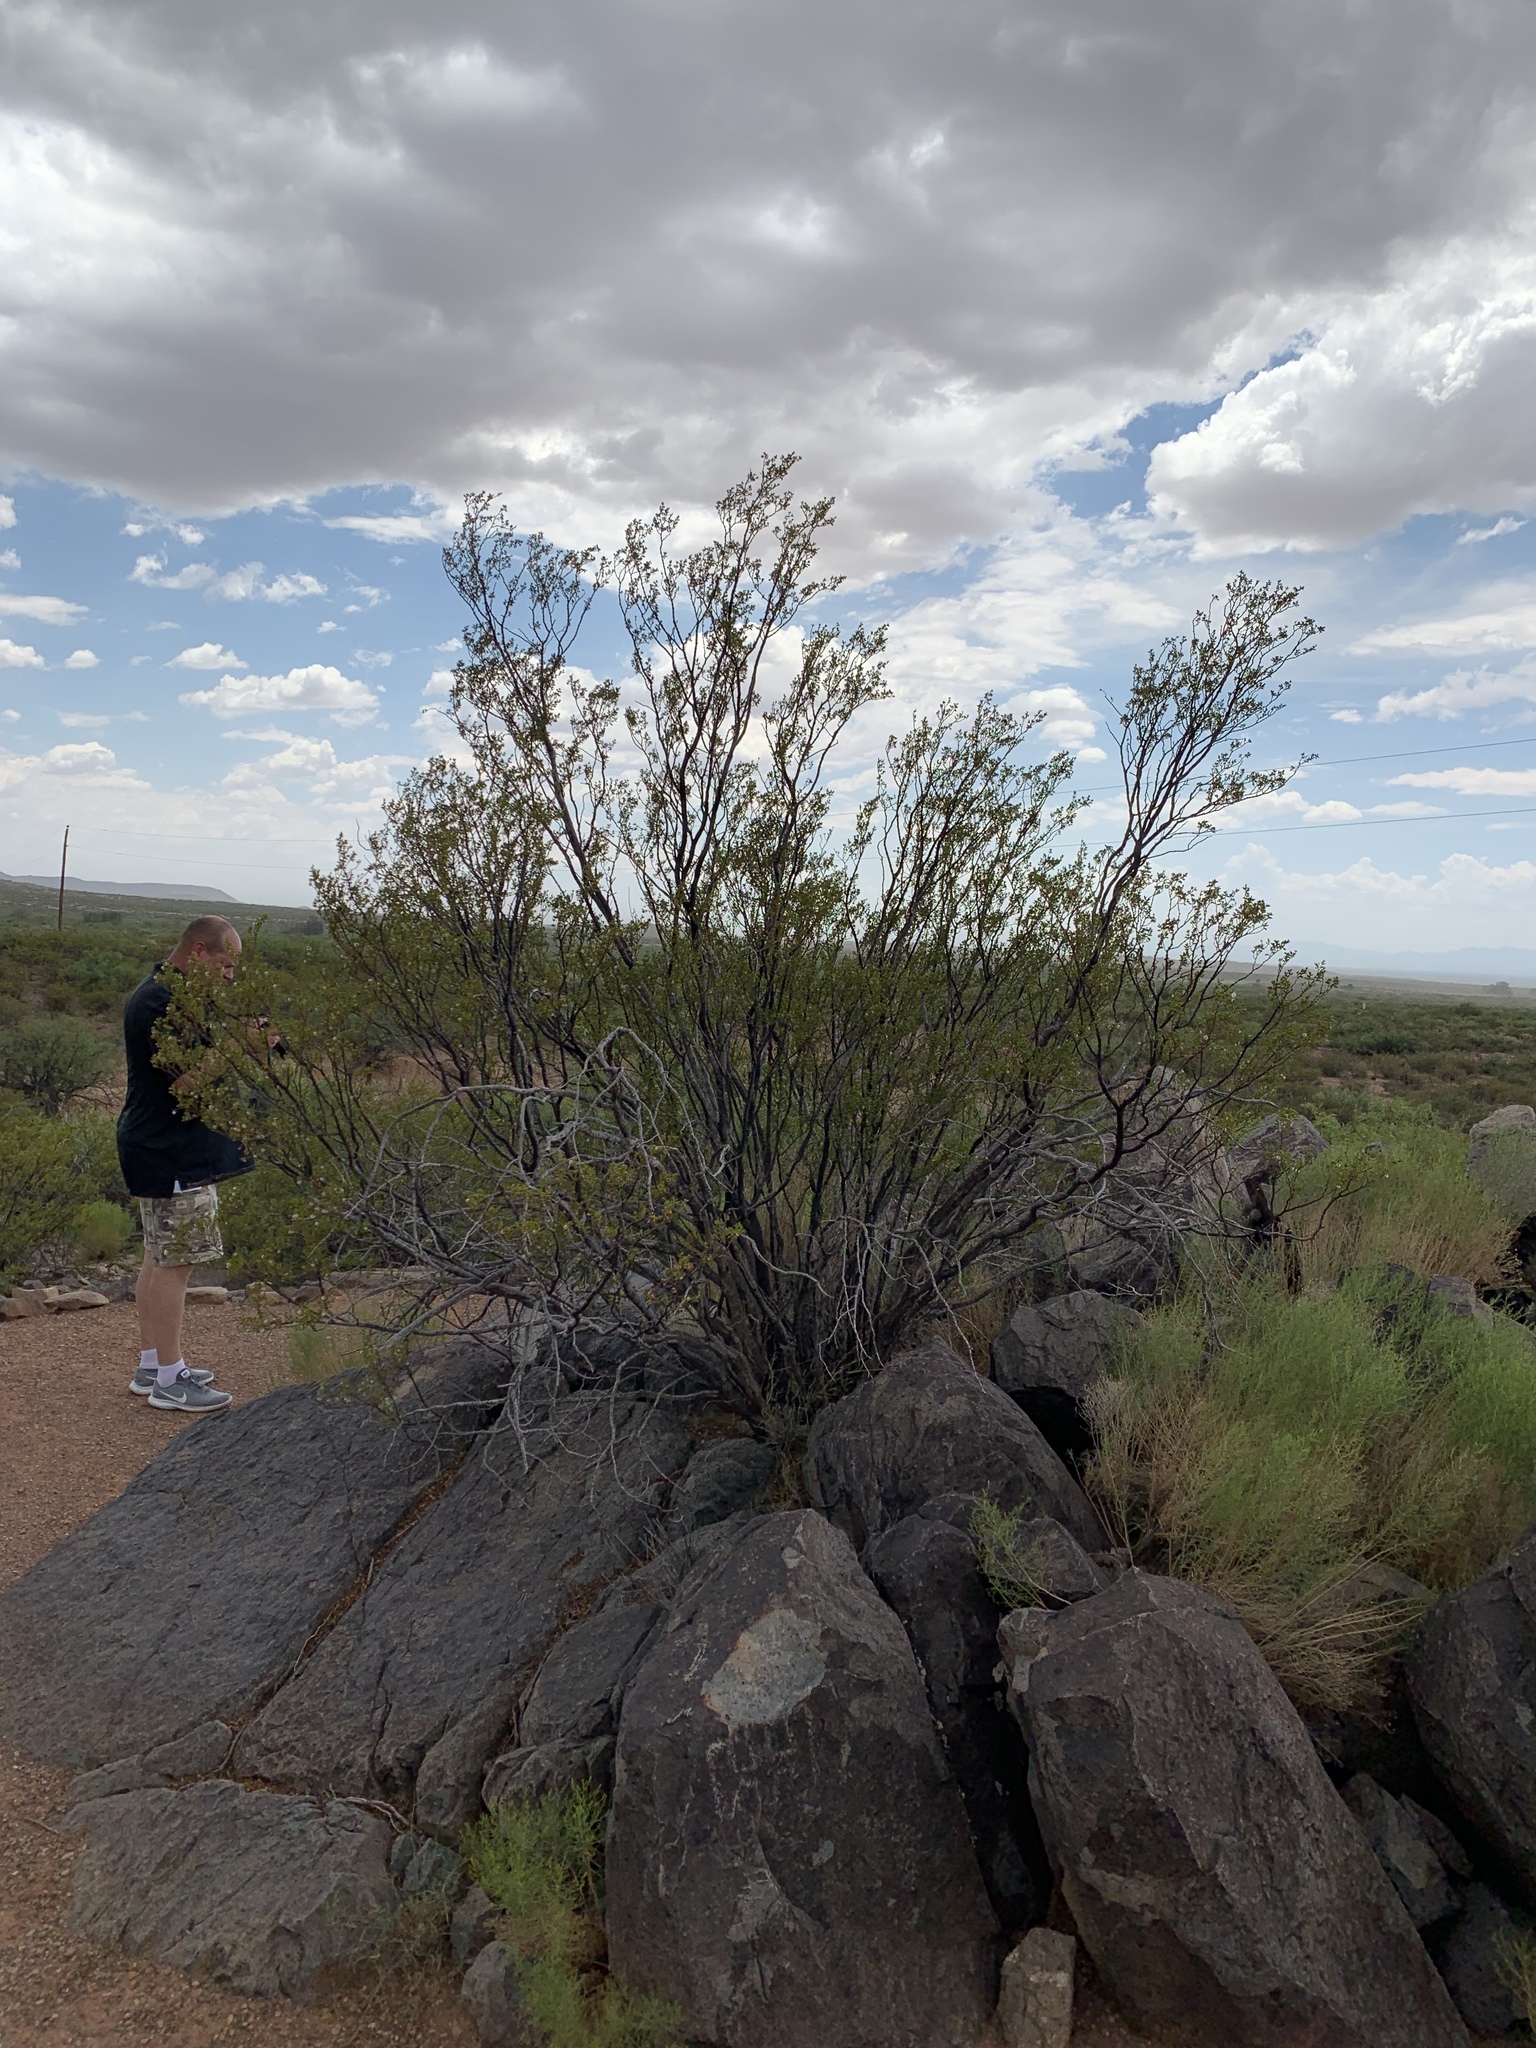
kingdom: Plantae
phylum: Tracheophyta
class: Magnoliopsida
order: Zygophyllales
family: Zygophyllaceae
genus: Larrea
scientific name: Larrea tridentata
